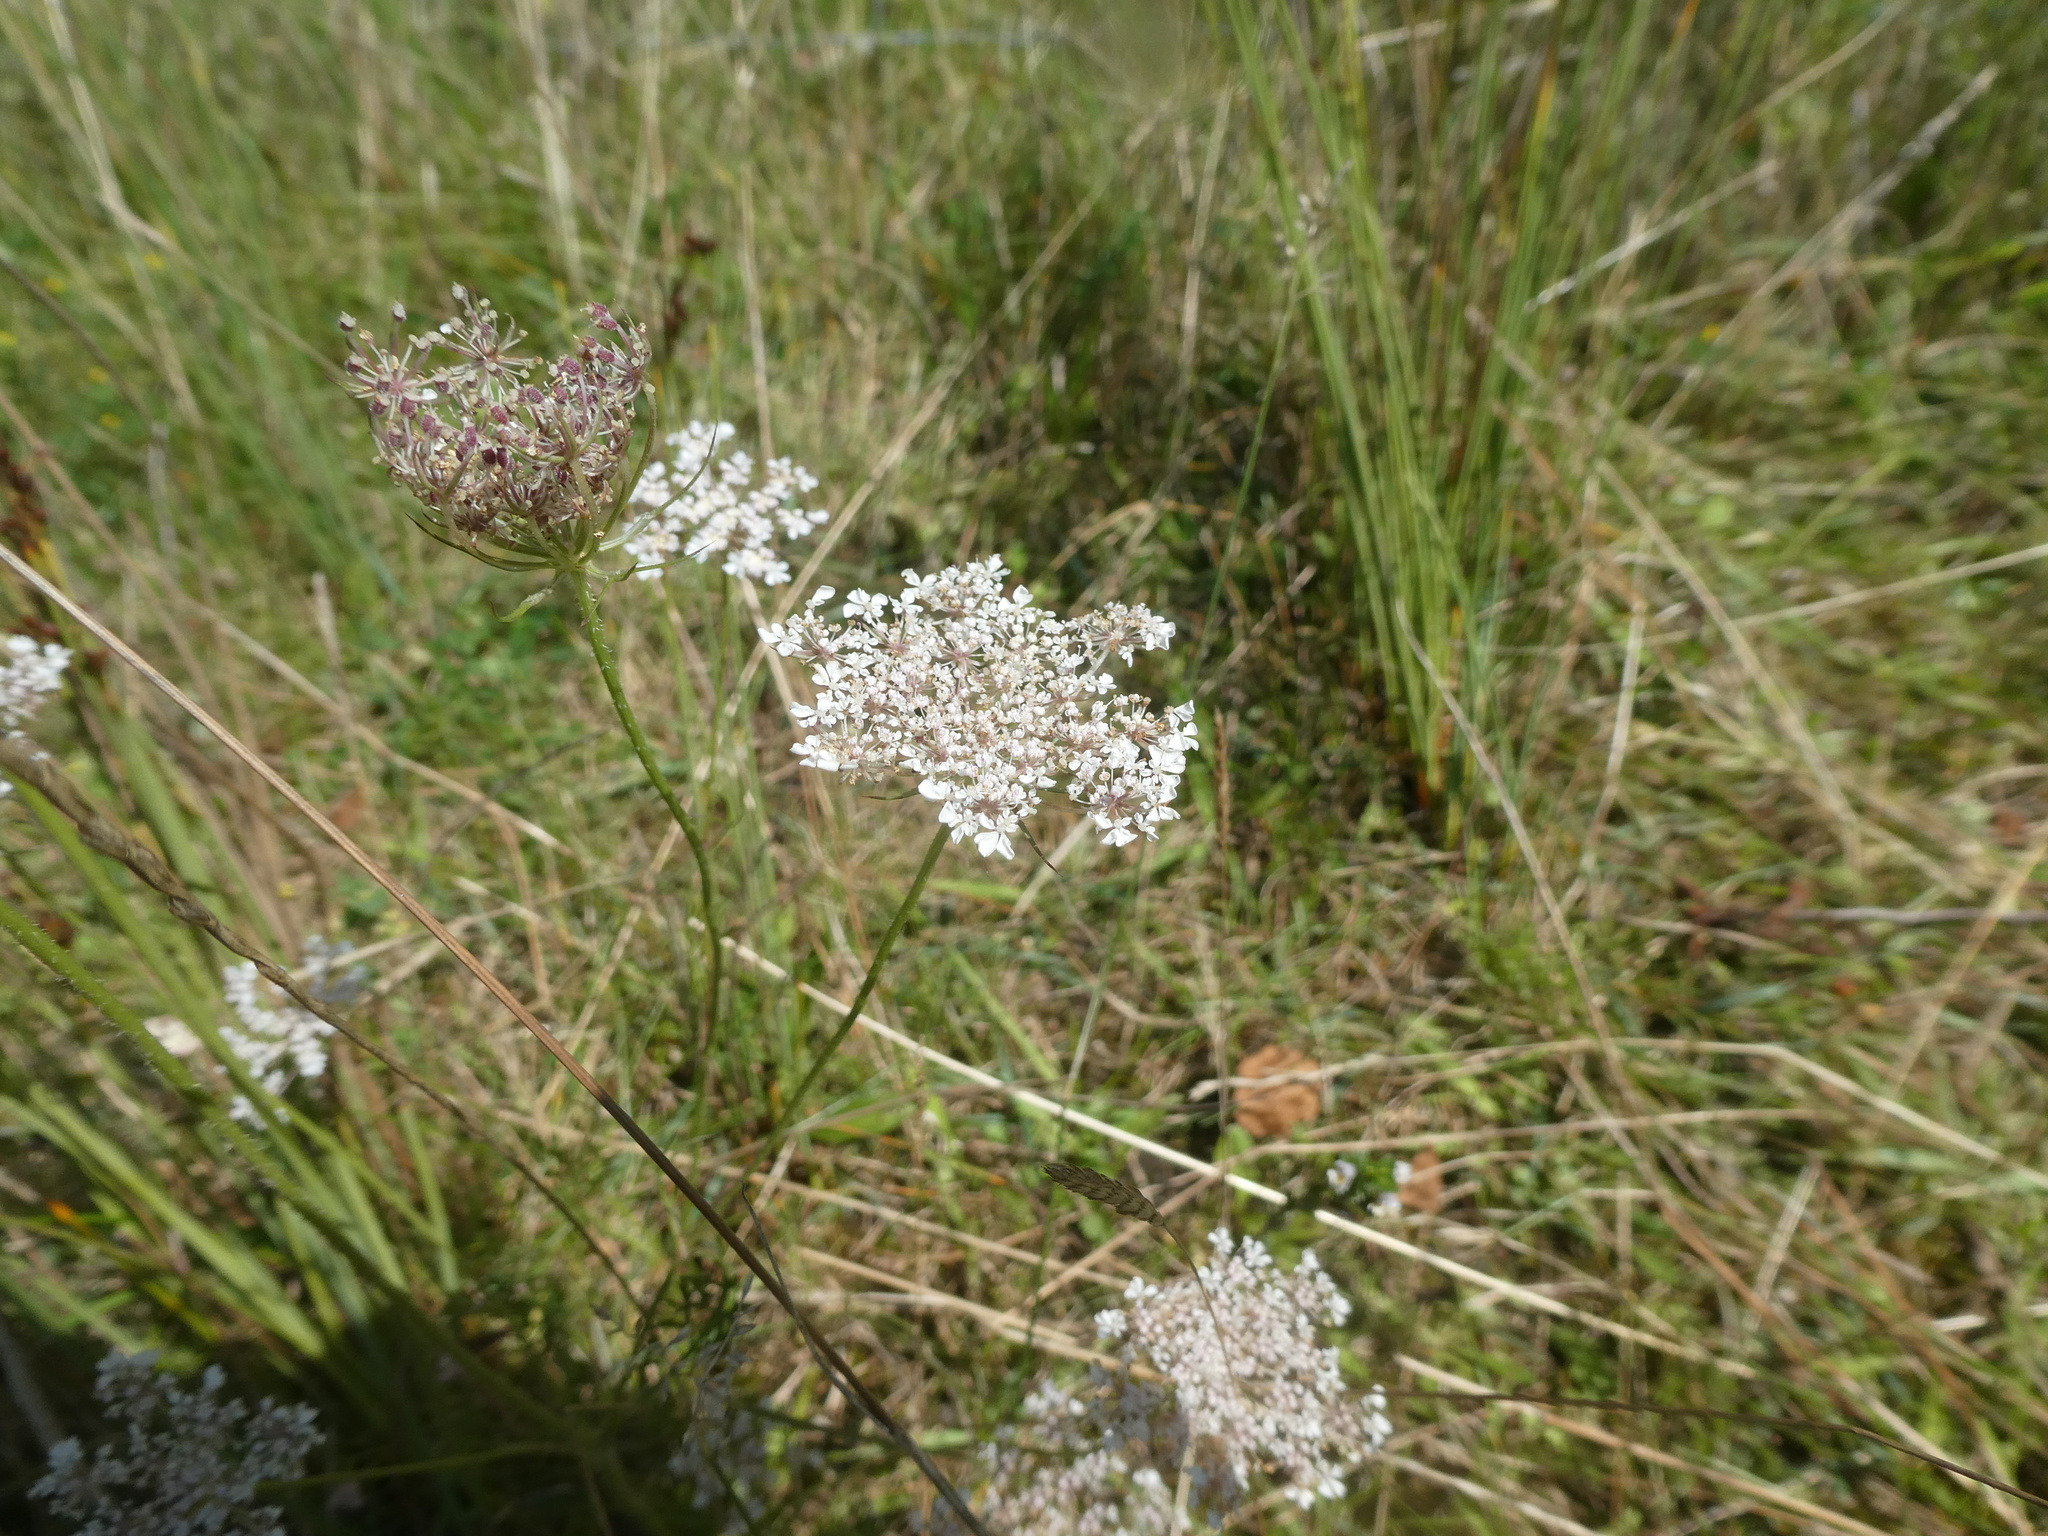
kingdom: Plantae
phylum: Tracheophyta
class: Magnoliopsida
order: Apiales
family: Apiaceae
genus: Daucus
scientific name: Daucus carota
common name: Wild carrot
